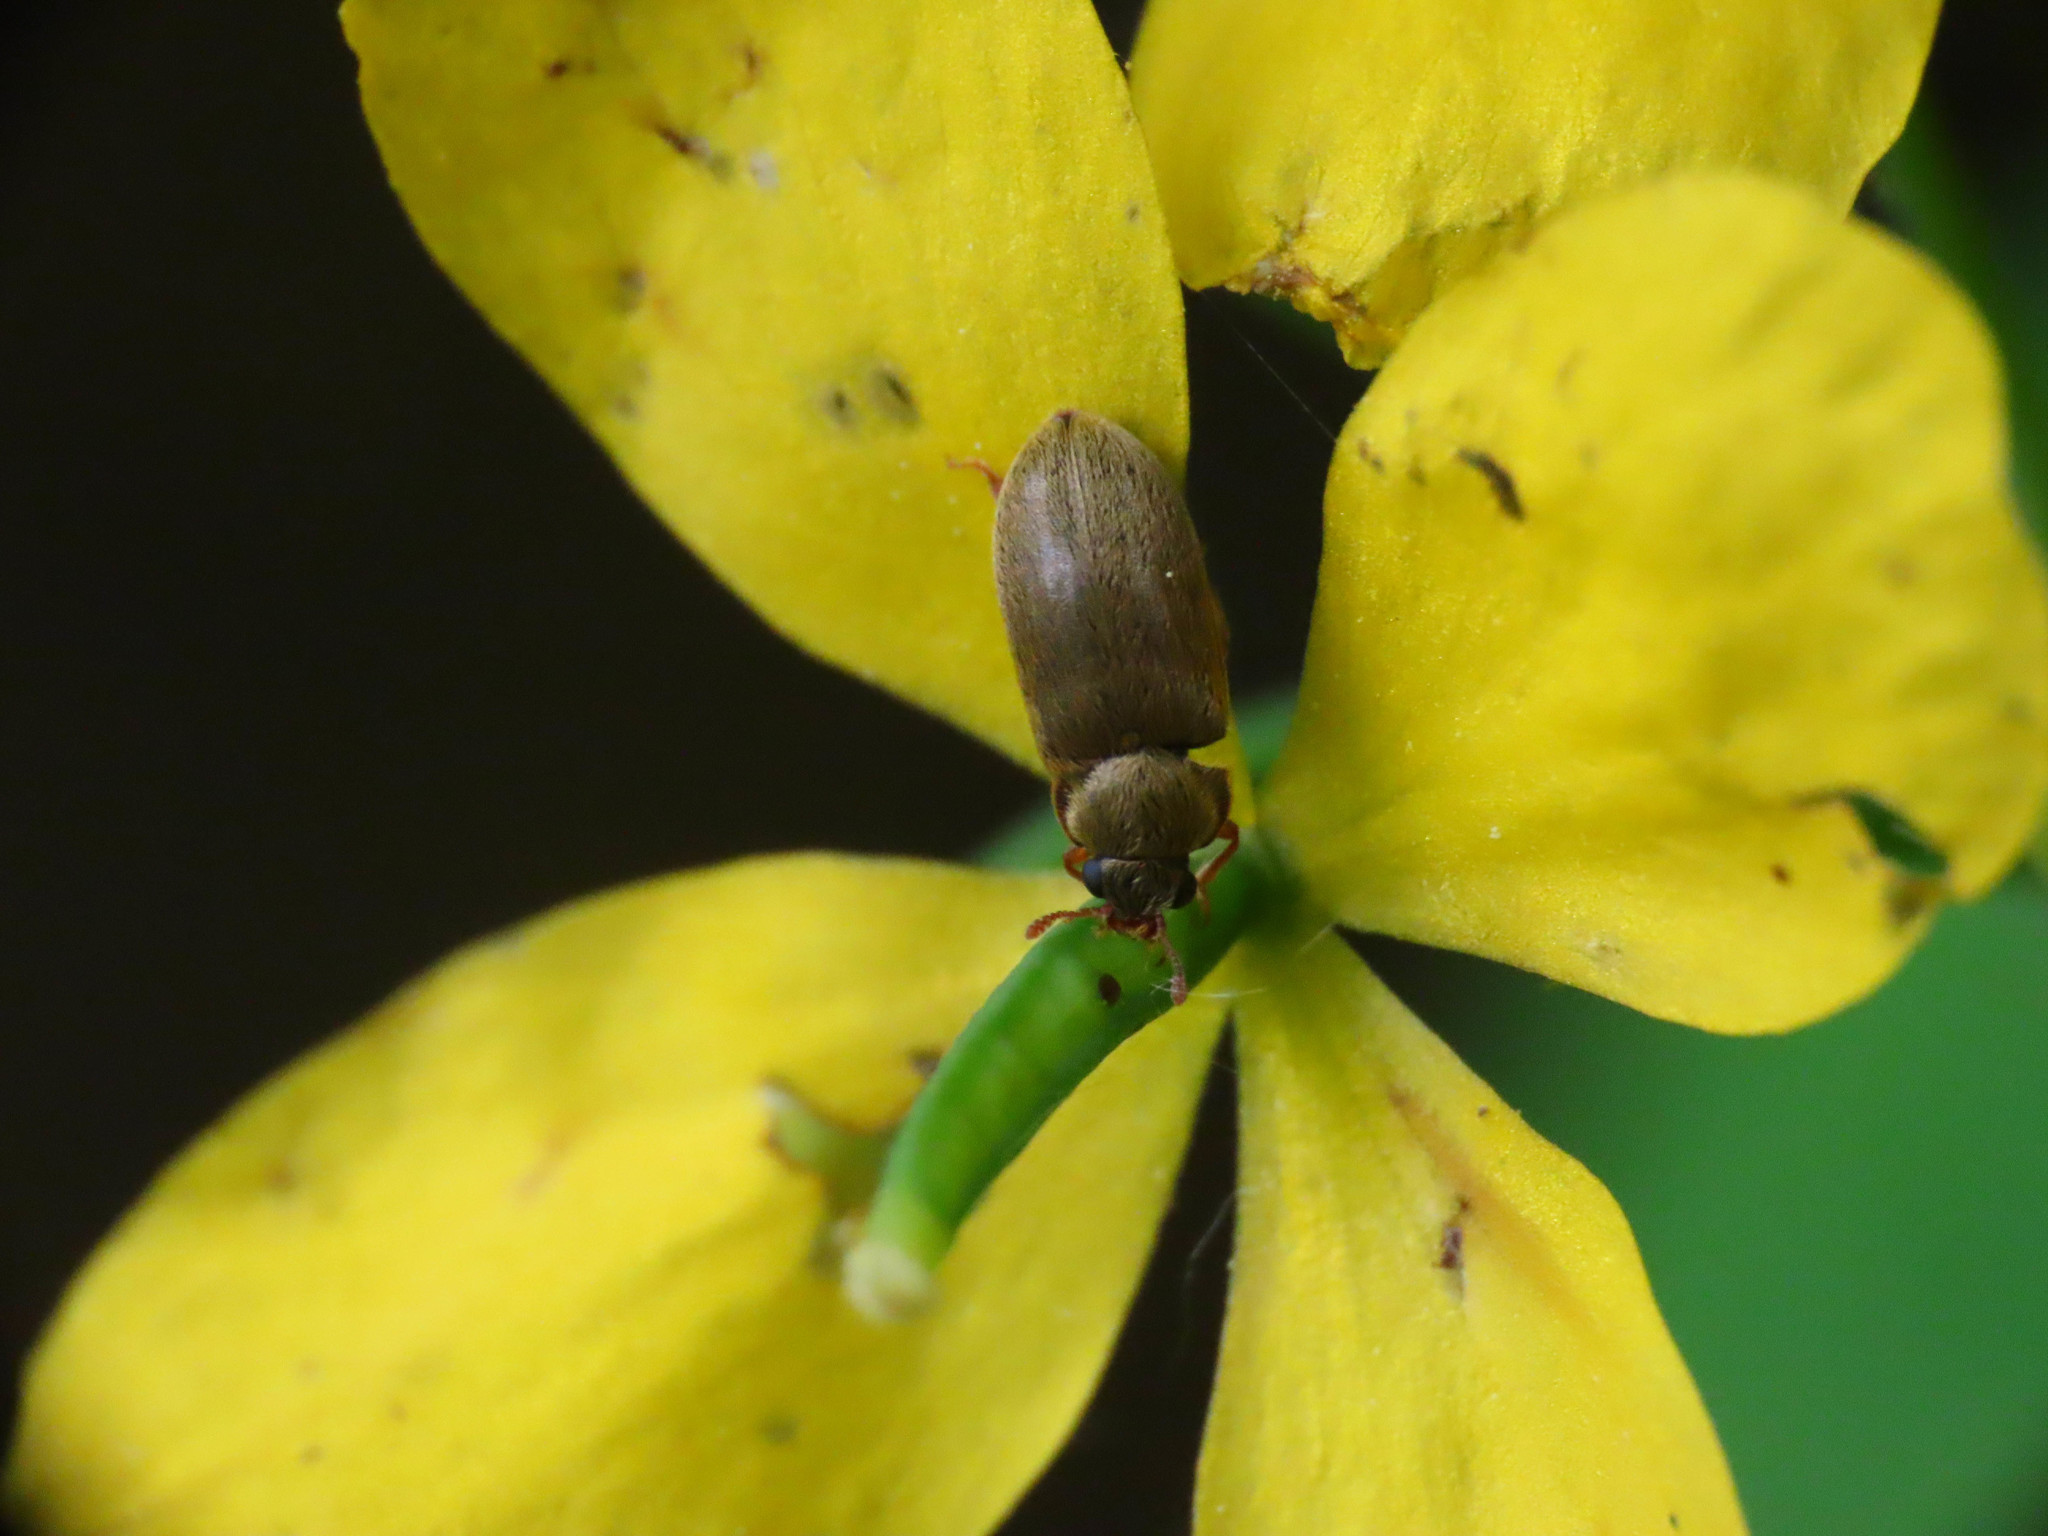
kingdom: Animalia
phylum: Arthropoda
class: Insecta
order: Coleoptera
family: Byturidae
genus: Byturus
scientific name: Byturus tomentosus
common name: Beetle
